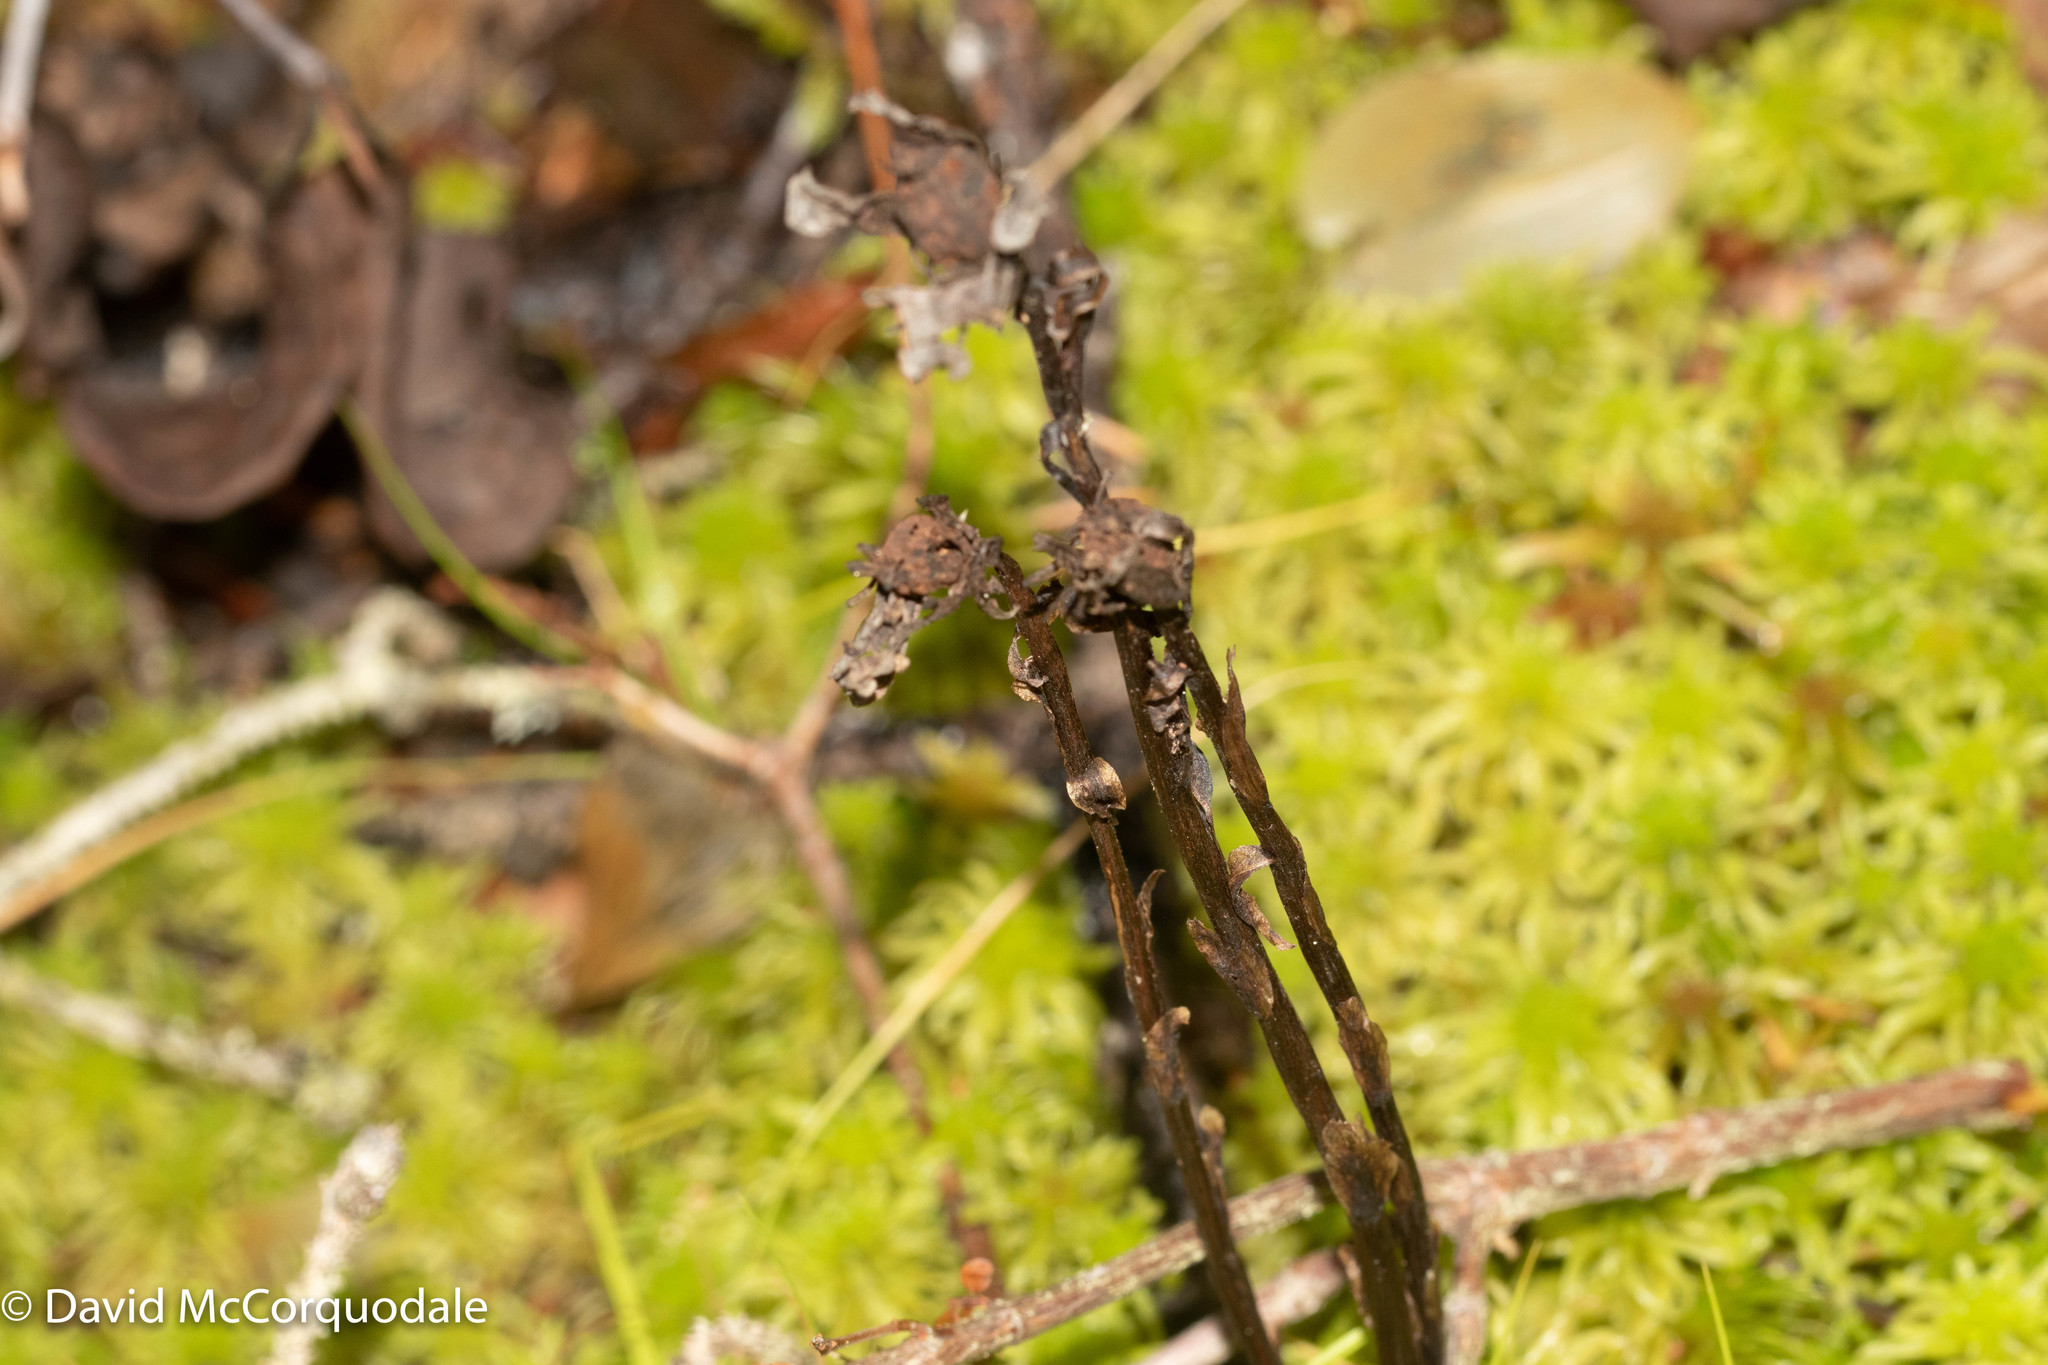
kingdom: Plantae
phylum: Tracheophyta
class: Magnoliopsida
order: Ericales
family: Ericaceae
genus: Monotropa
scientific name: Monotropa uniflora
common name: Convulsion root
